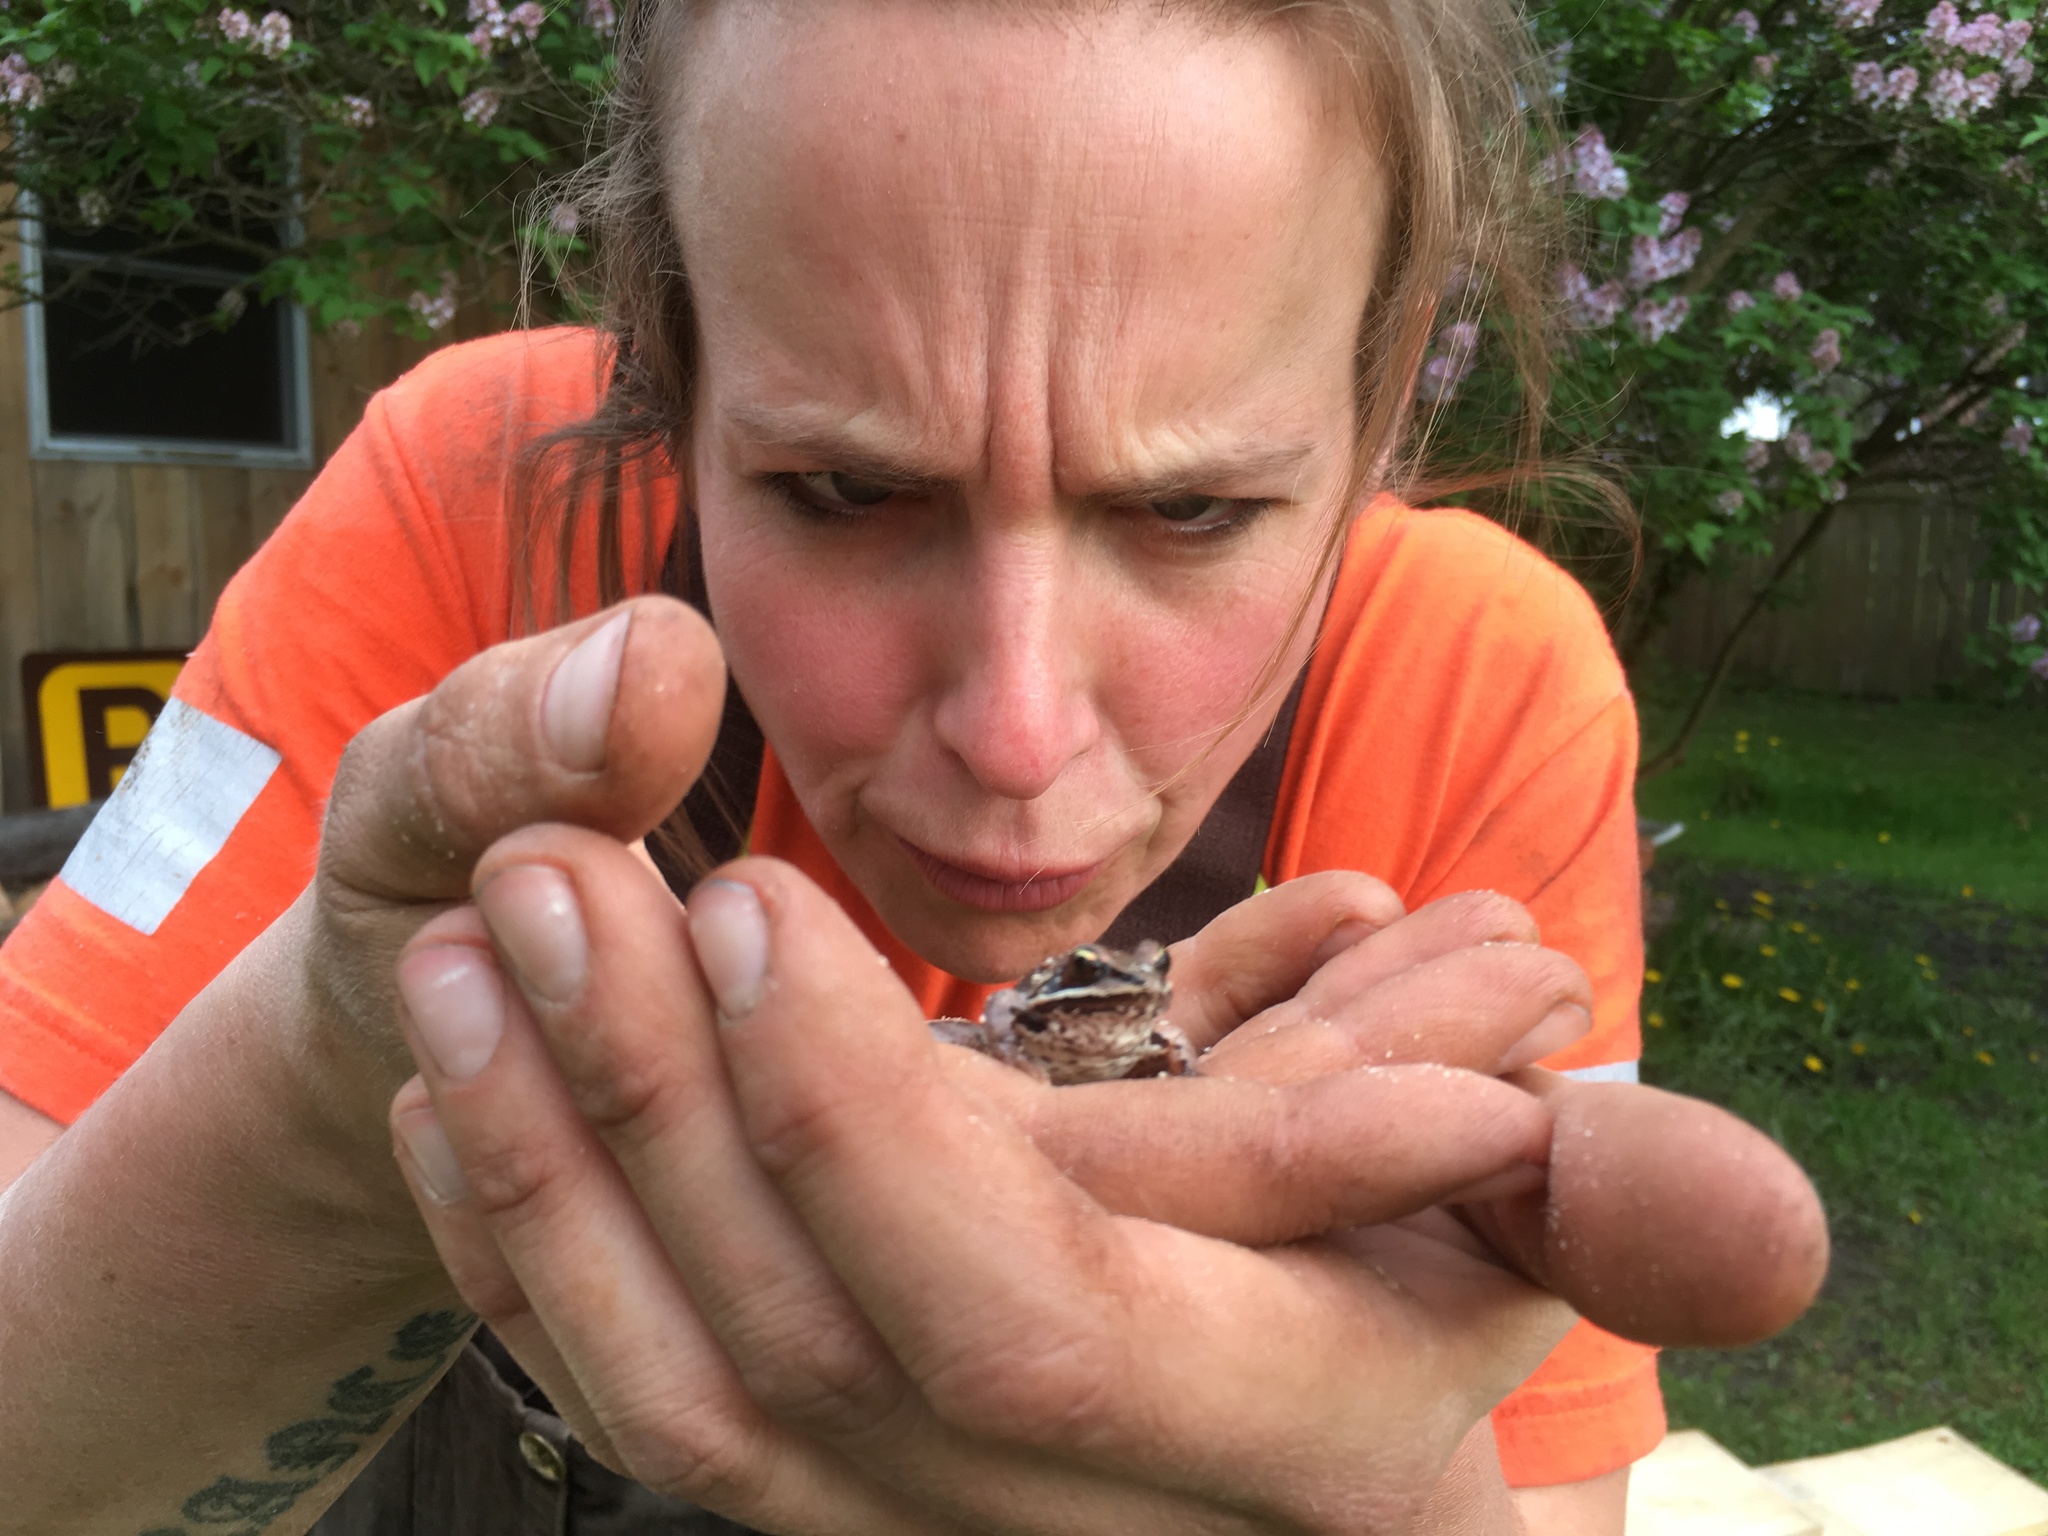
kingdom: Animalia
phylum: Chordata
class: Amphibia
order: Anura
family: Ranidae
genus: Lithobates
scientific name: Lithobates sylvaticus
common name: Wood frog
